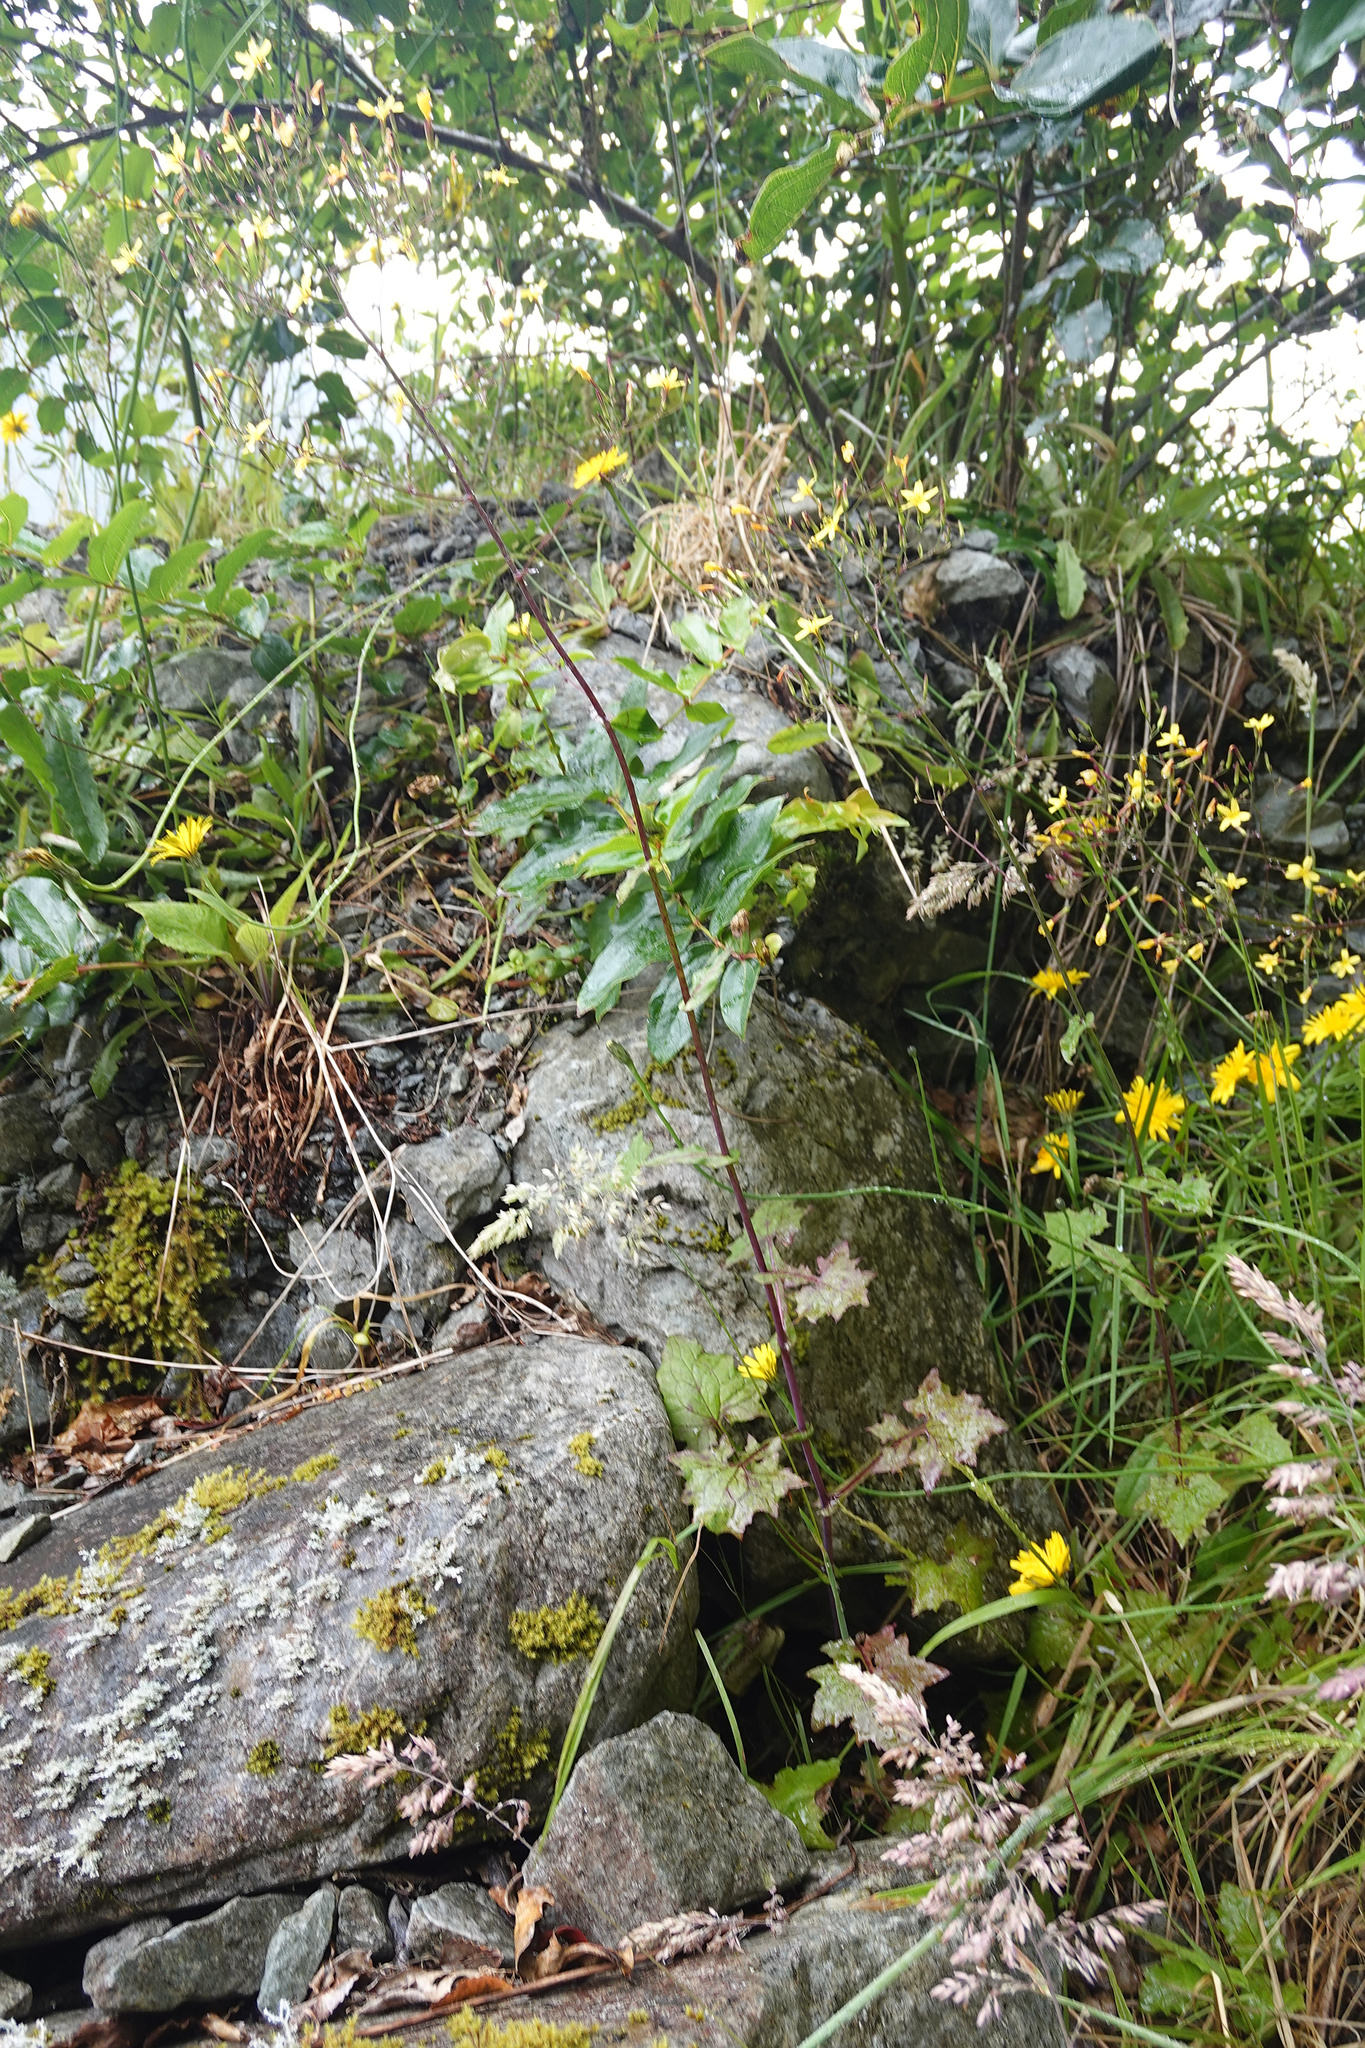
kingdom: Plantae
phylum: Tracheophyta
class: Magnoliopsida
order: Asterales
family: Asteraceae
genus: Mycelis
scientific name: Mycelis muralis
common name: Wall lettuce
